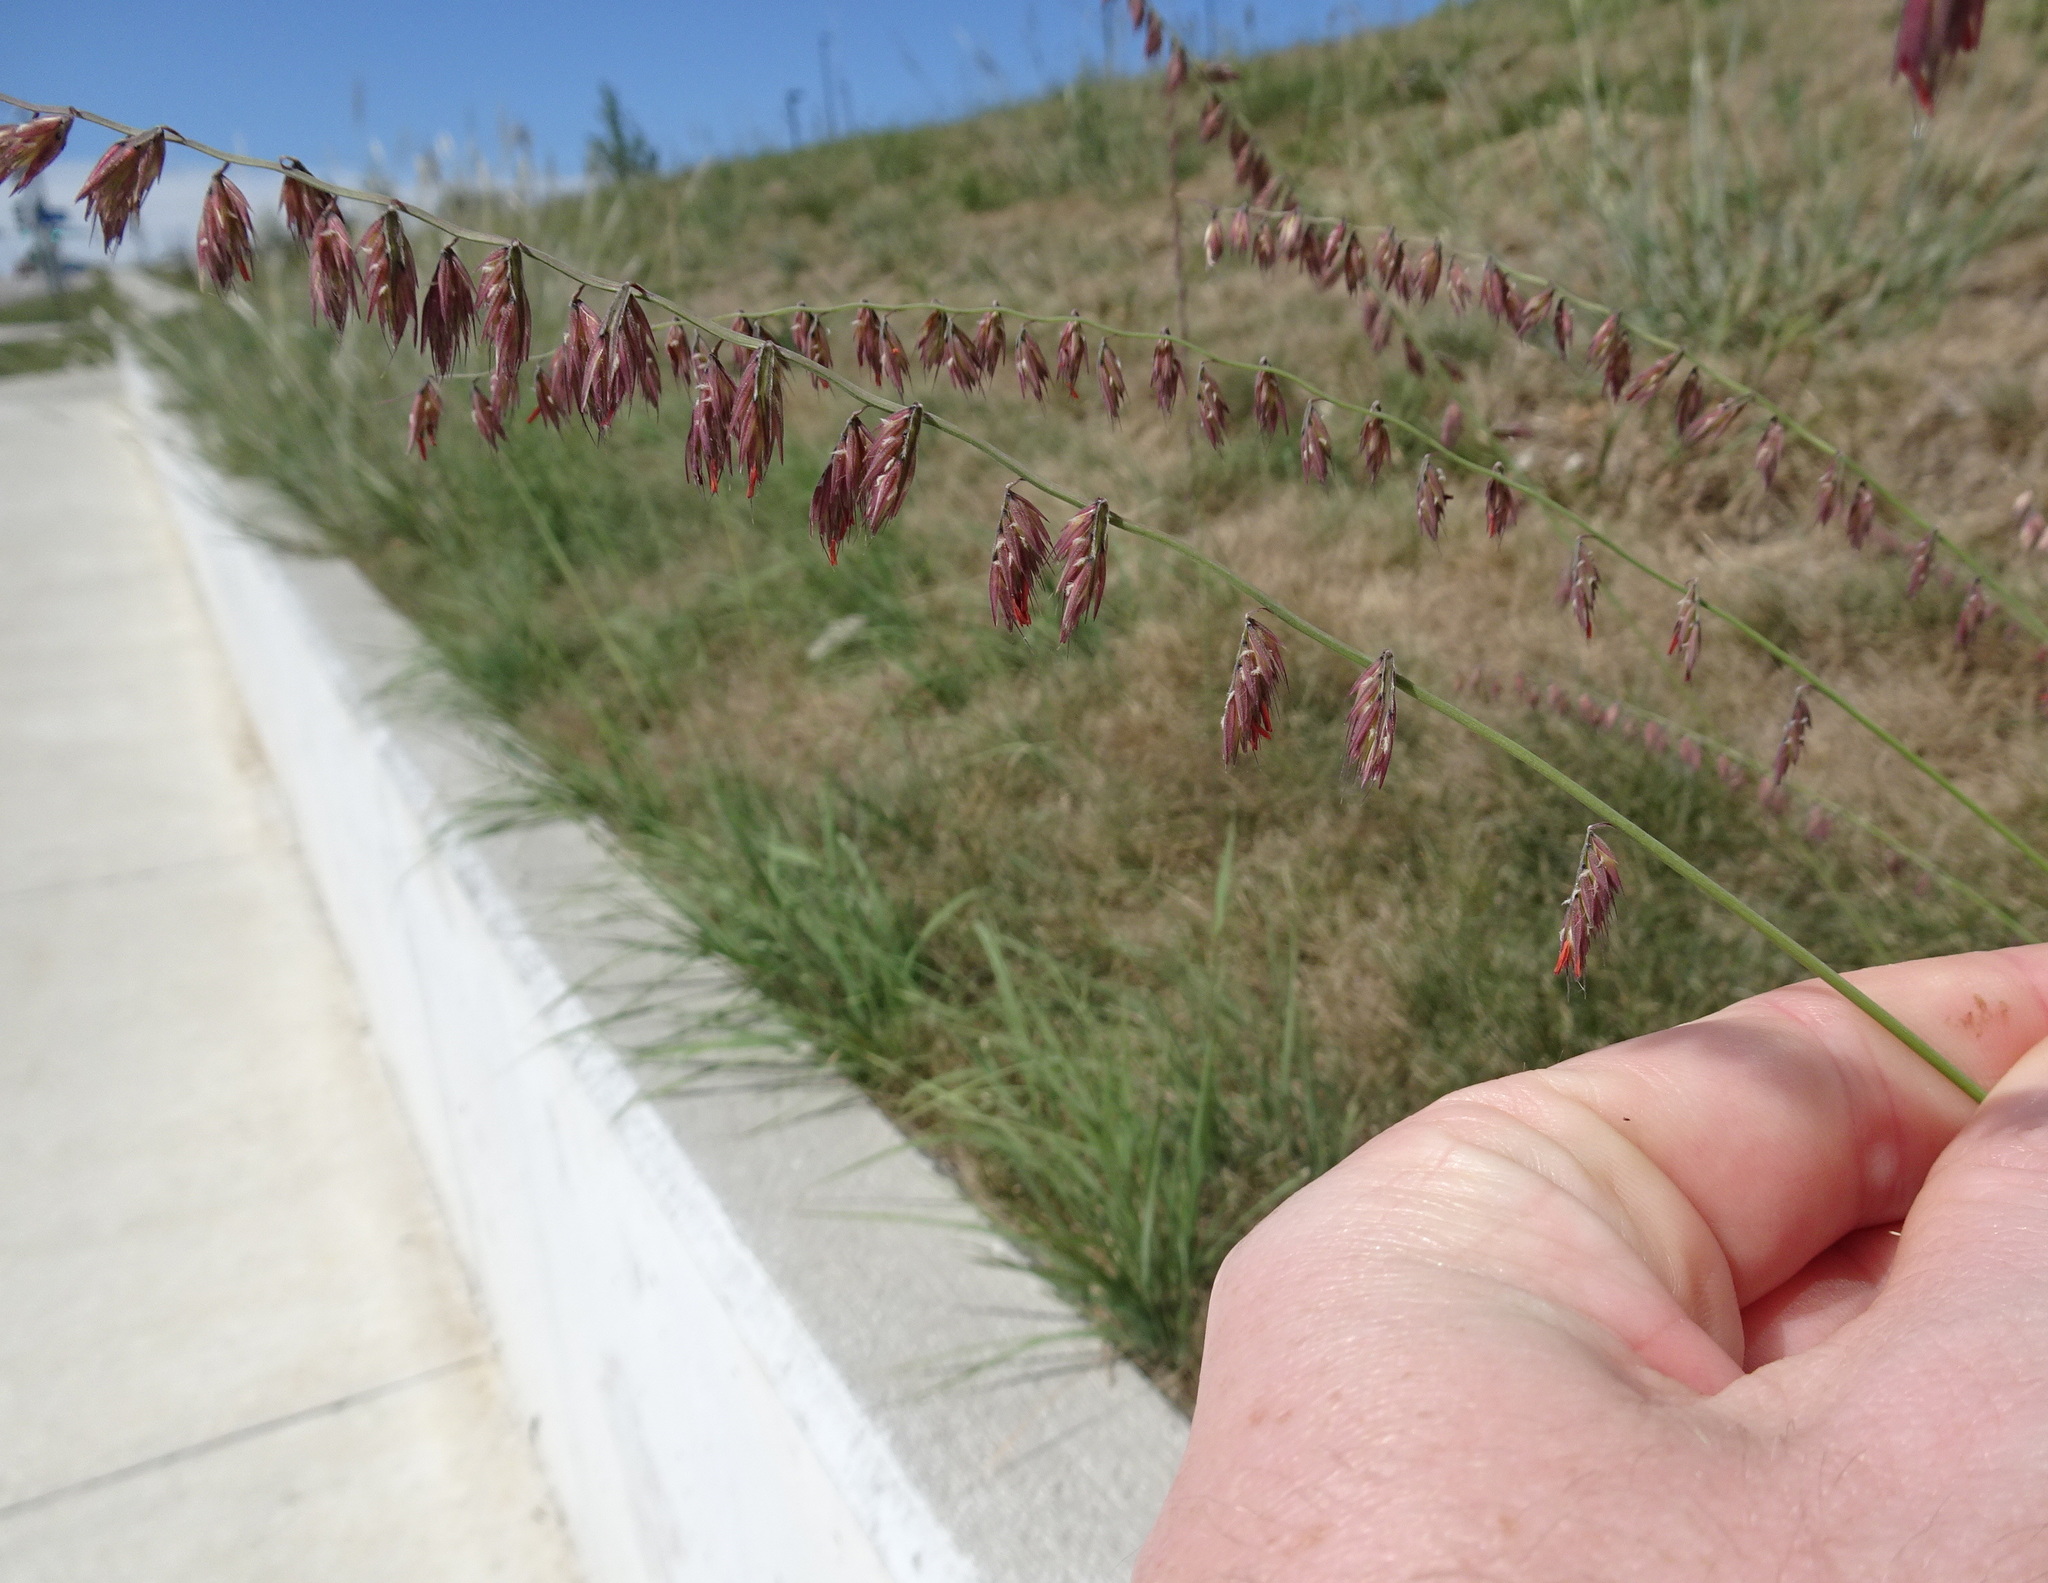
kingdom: Plantae
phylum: Tracheophyta
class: Liliopsida
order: Poales
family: Poaceae
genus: Bouteloua
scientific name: Bouteloua curtipendula
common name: Side-oats grama
